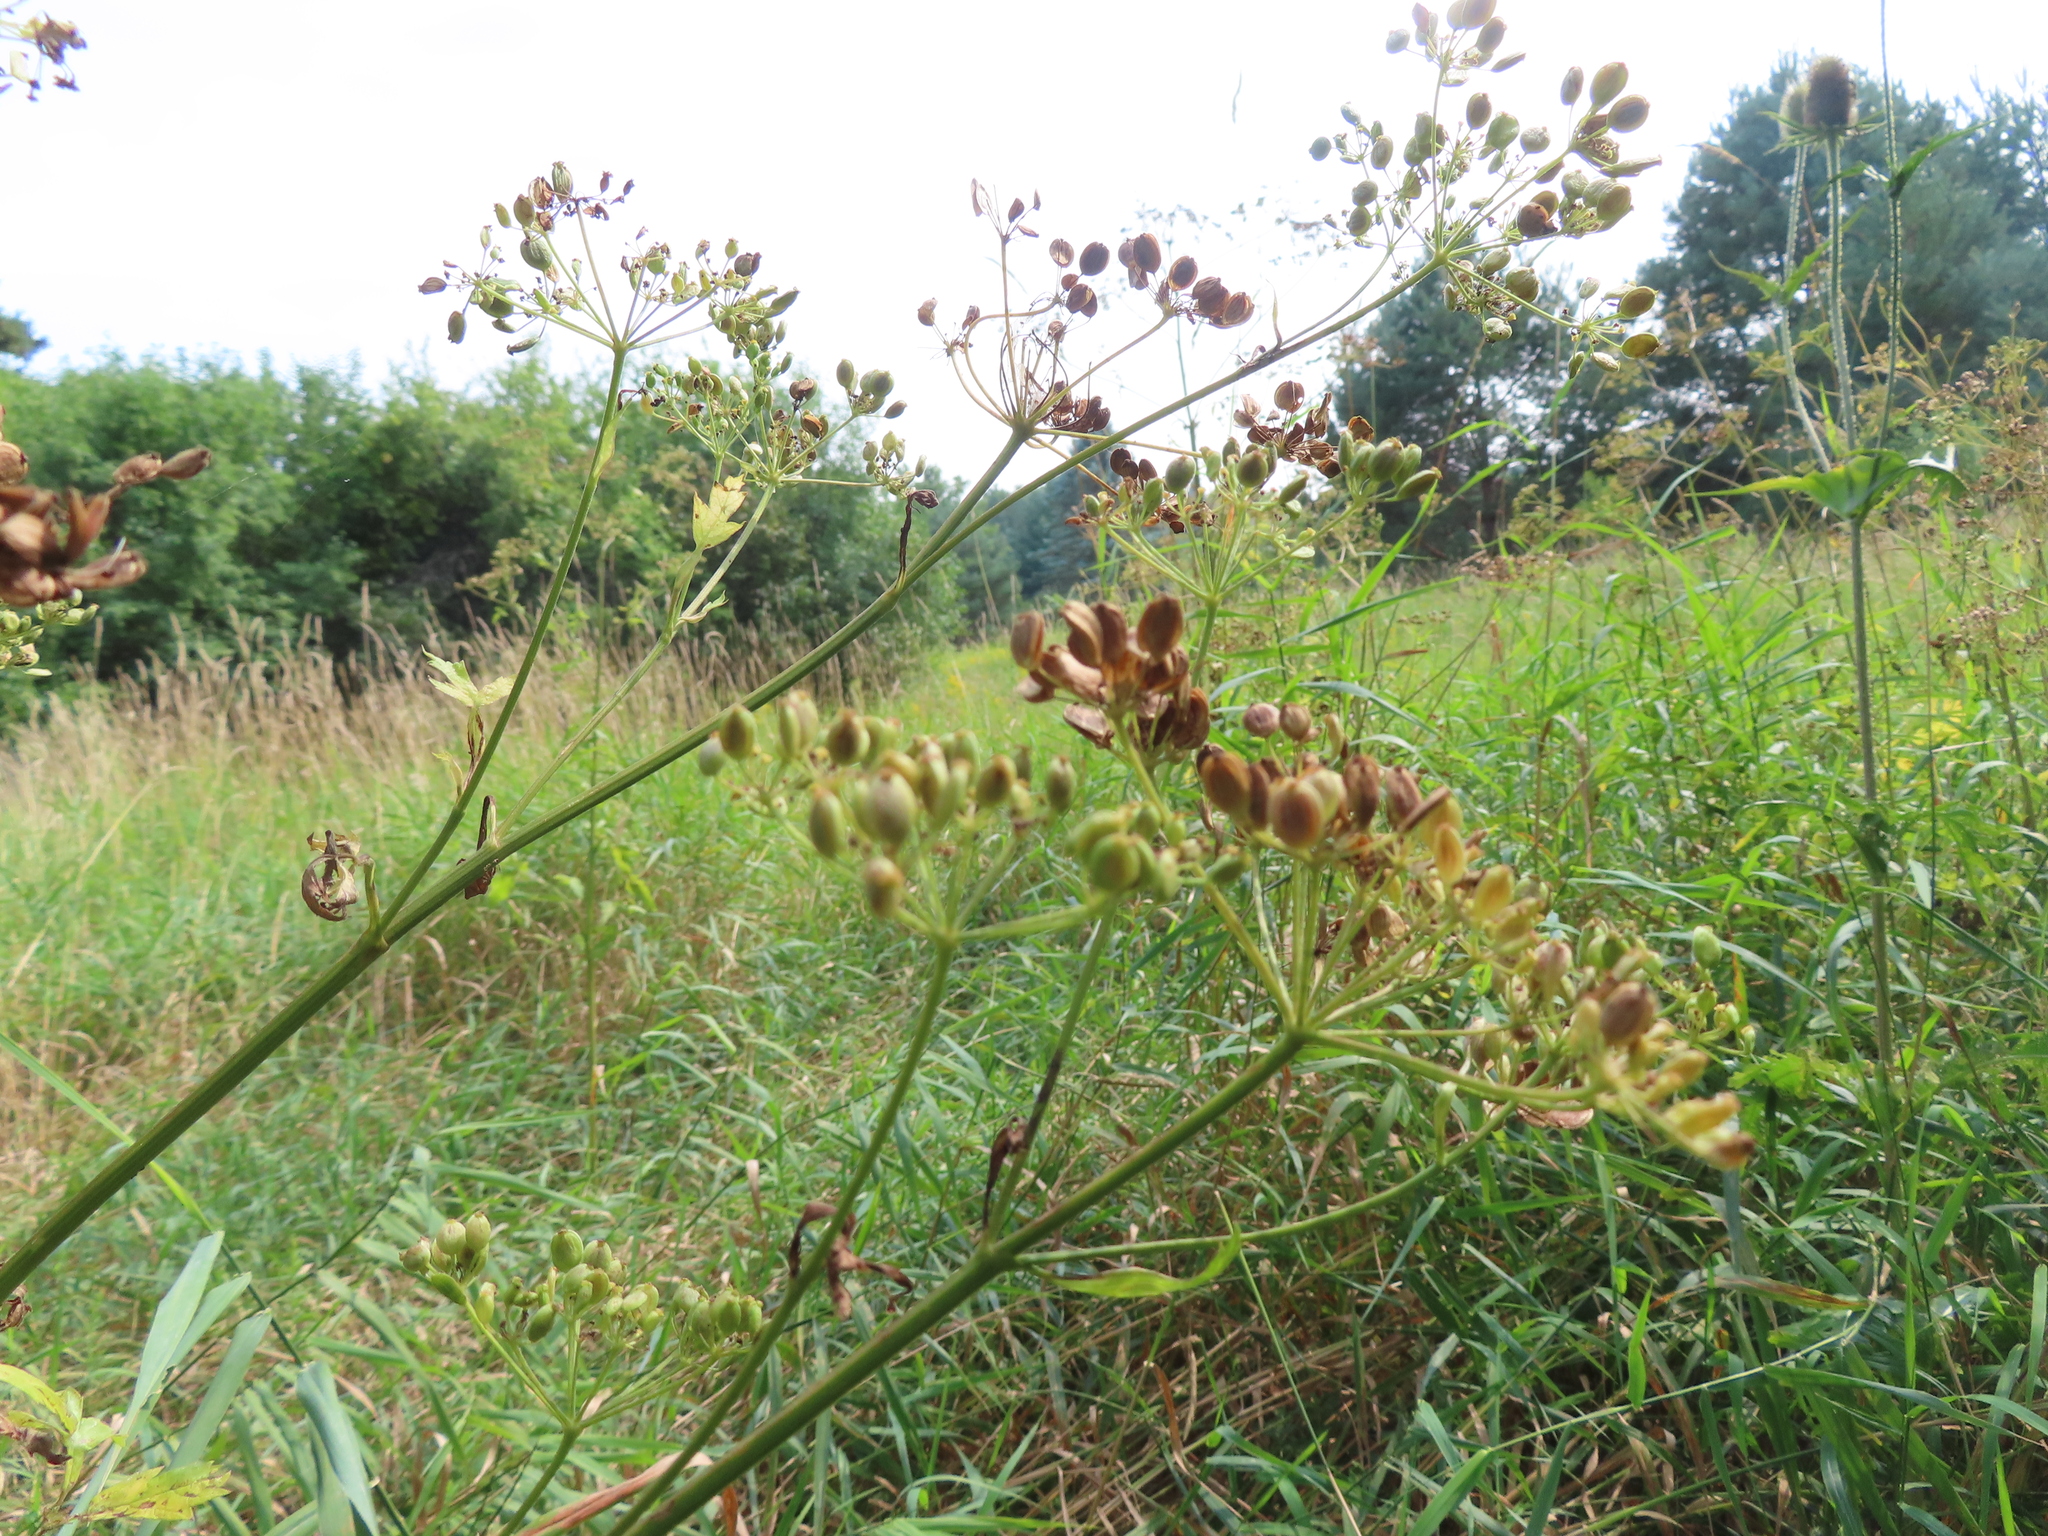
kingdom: Plantae
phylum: Tracheophyta
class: Magnoliopsida
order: Apiales
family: Apiaceae
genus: Pastinaca
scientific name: Pastinaca sativa
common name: Wild parsnip
